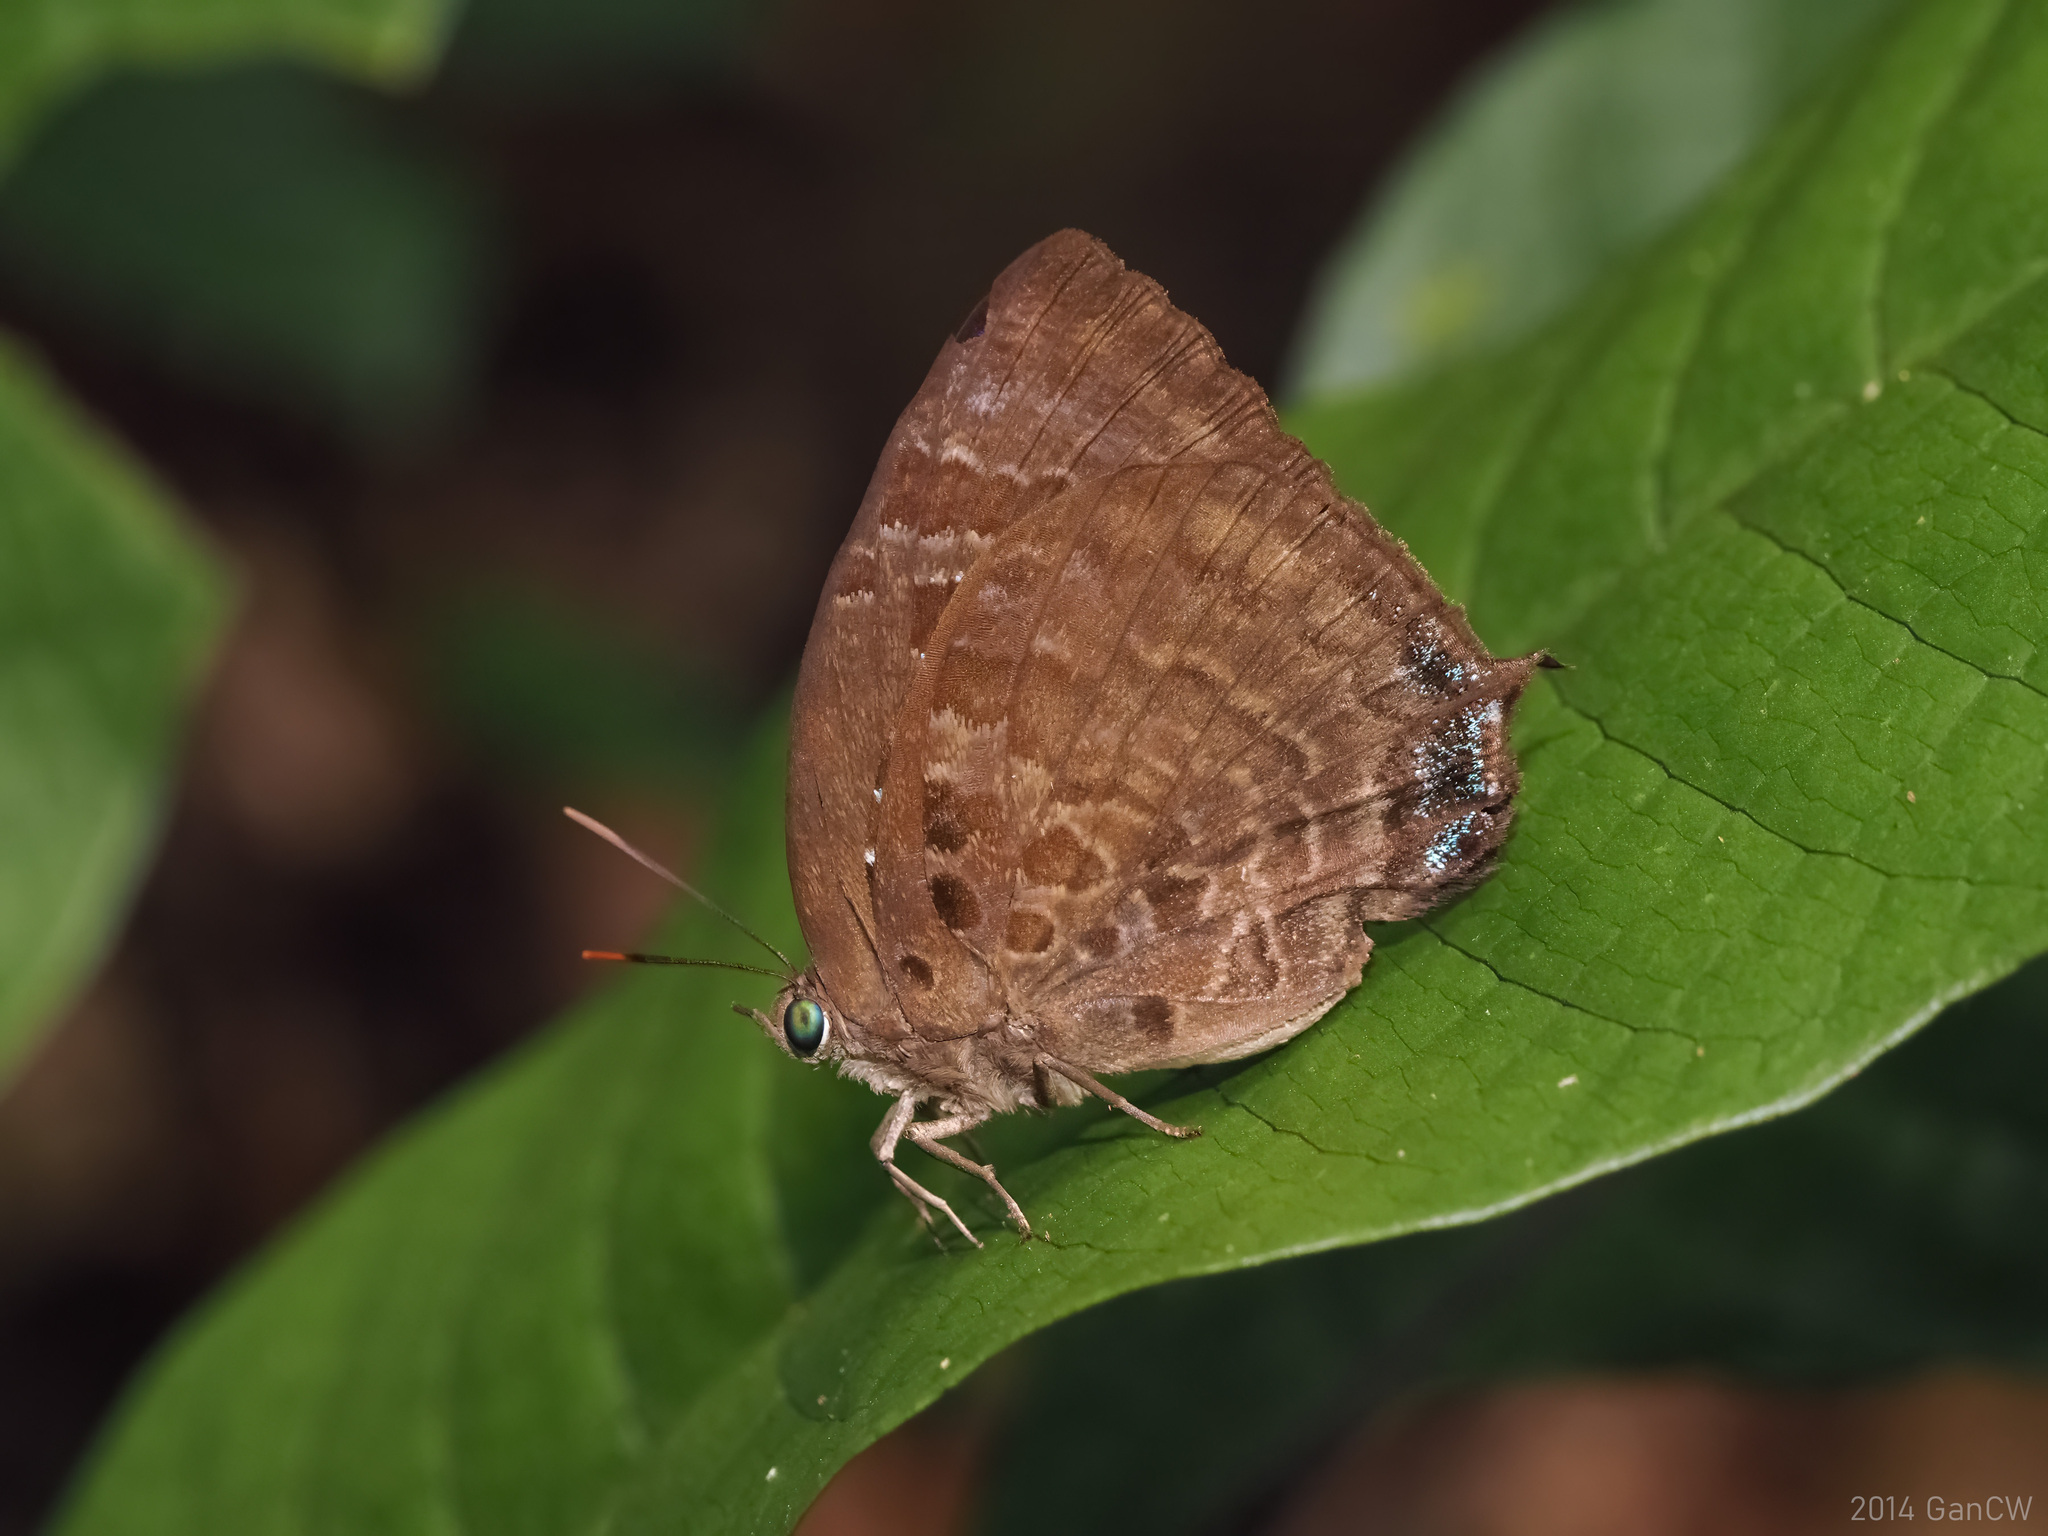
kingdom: Animalia
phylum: Arthropoda
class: Insecta
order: Lepidoptera
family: Lycaenidae
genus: Arhopala
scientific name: Arhopala centaurus
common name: Dull oak-blue
